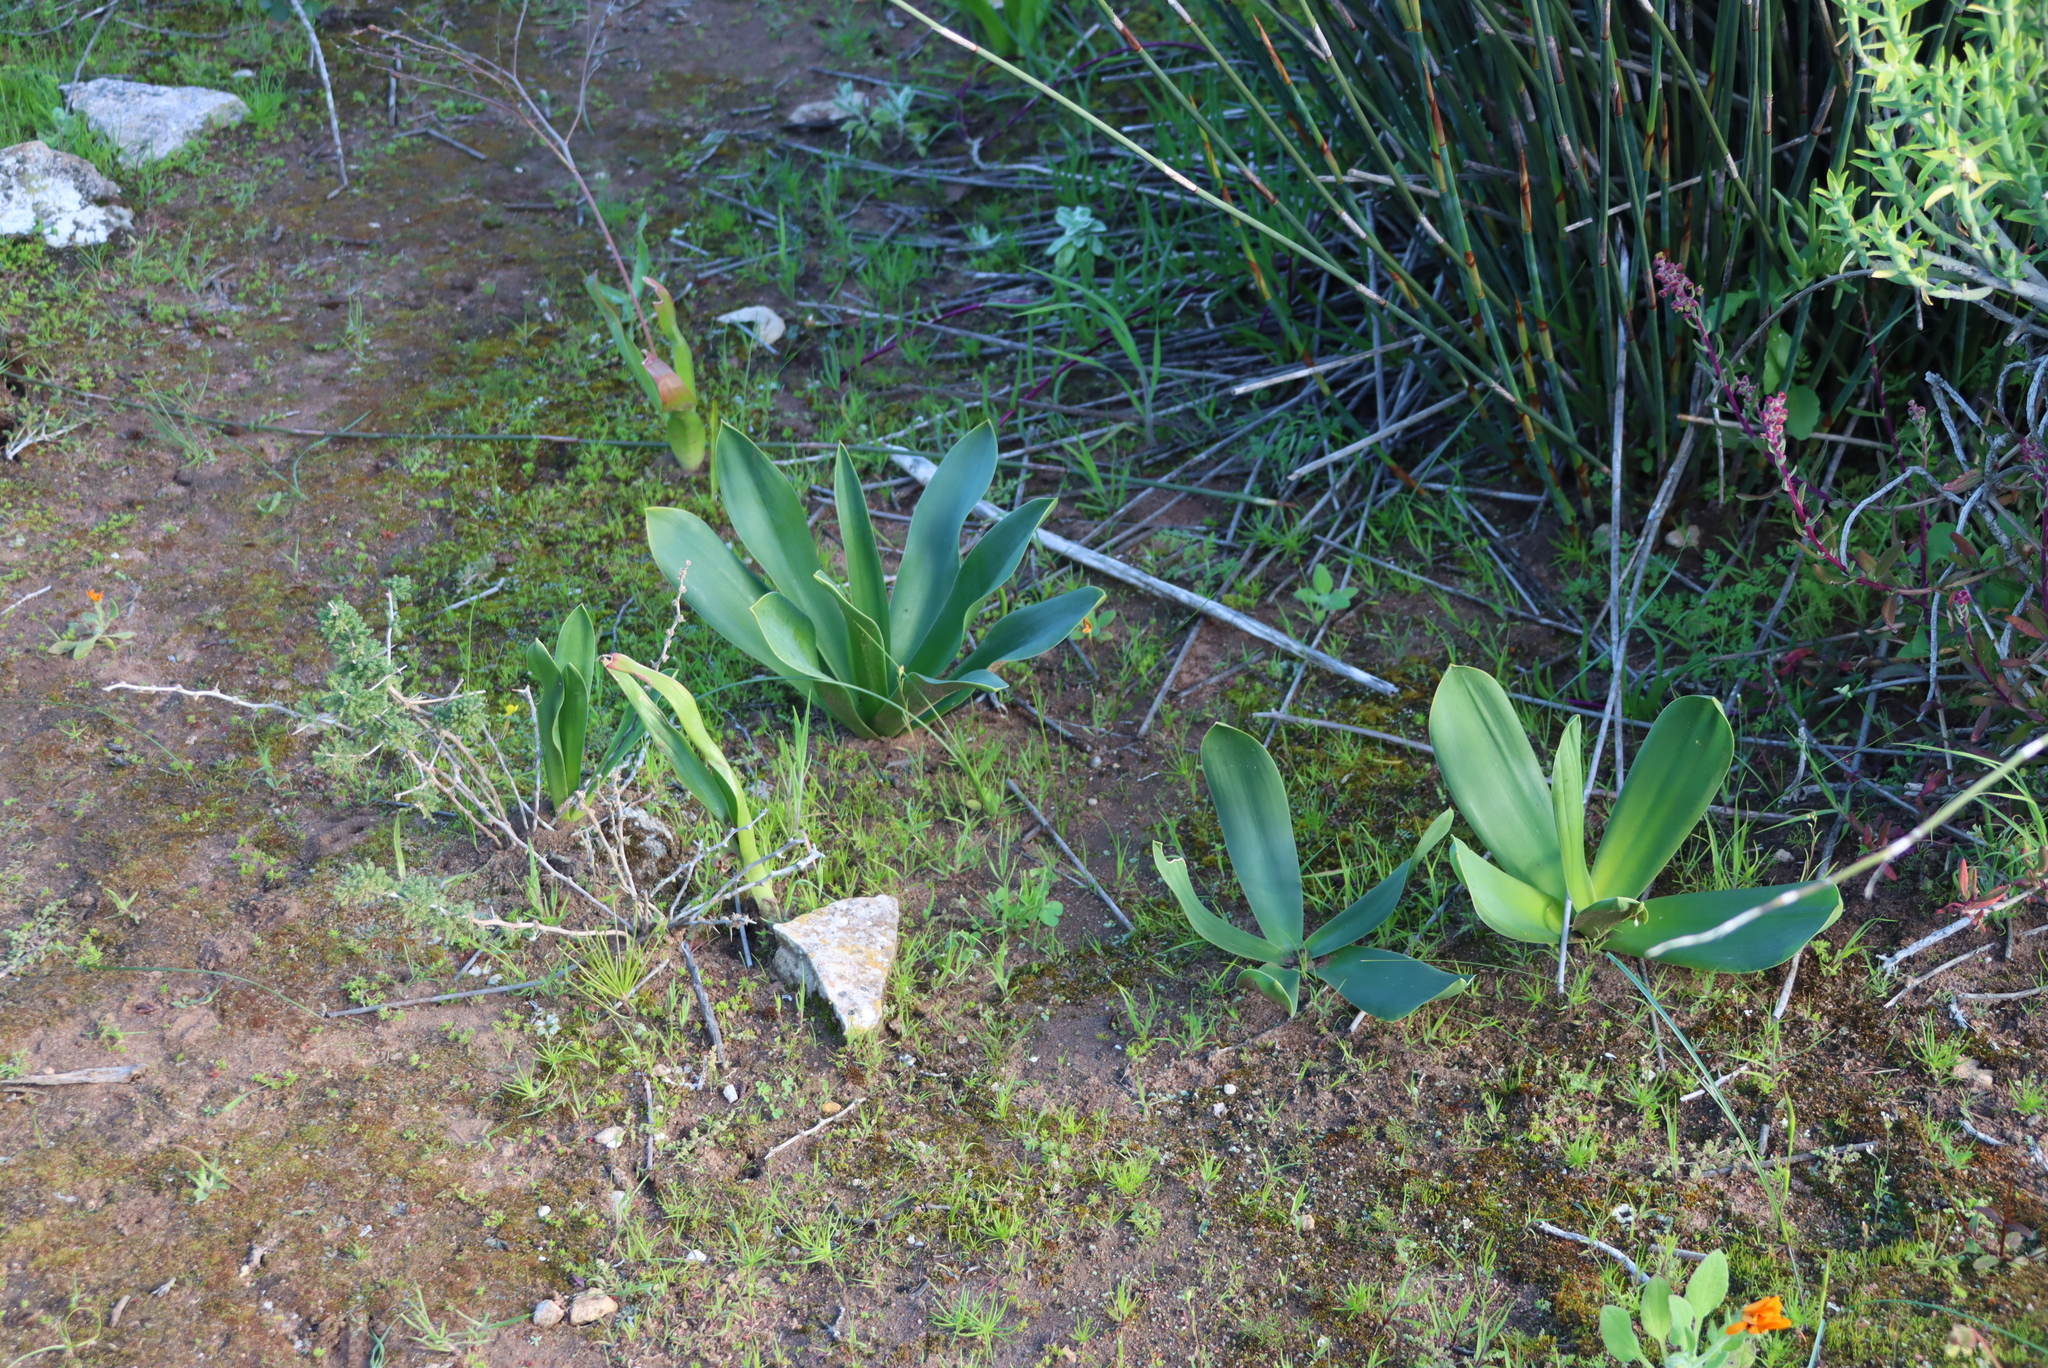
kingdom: Plantae
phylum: Tracheophyta
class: Liliopsida
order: Asparagales
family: Asparagaceae
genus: Drimia
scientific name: Drimia capensis
